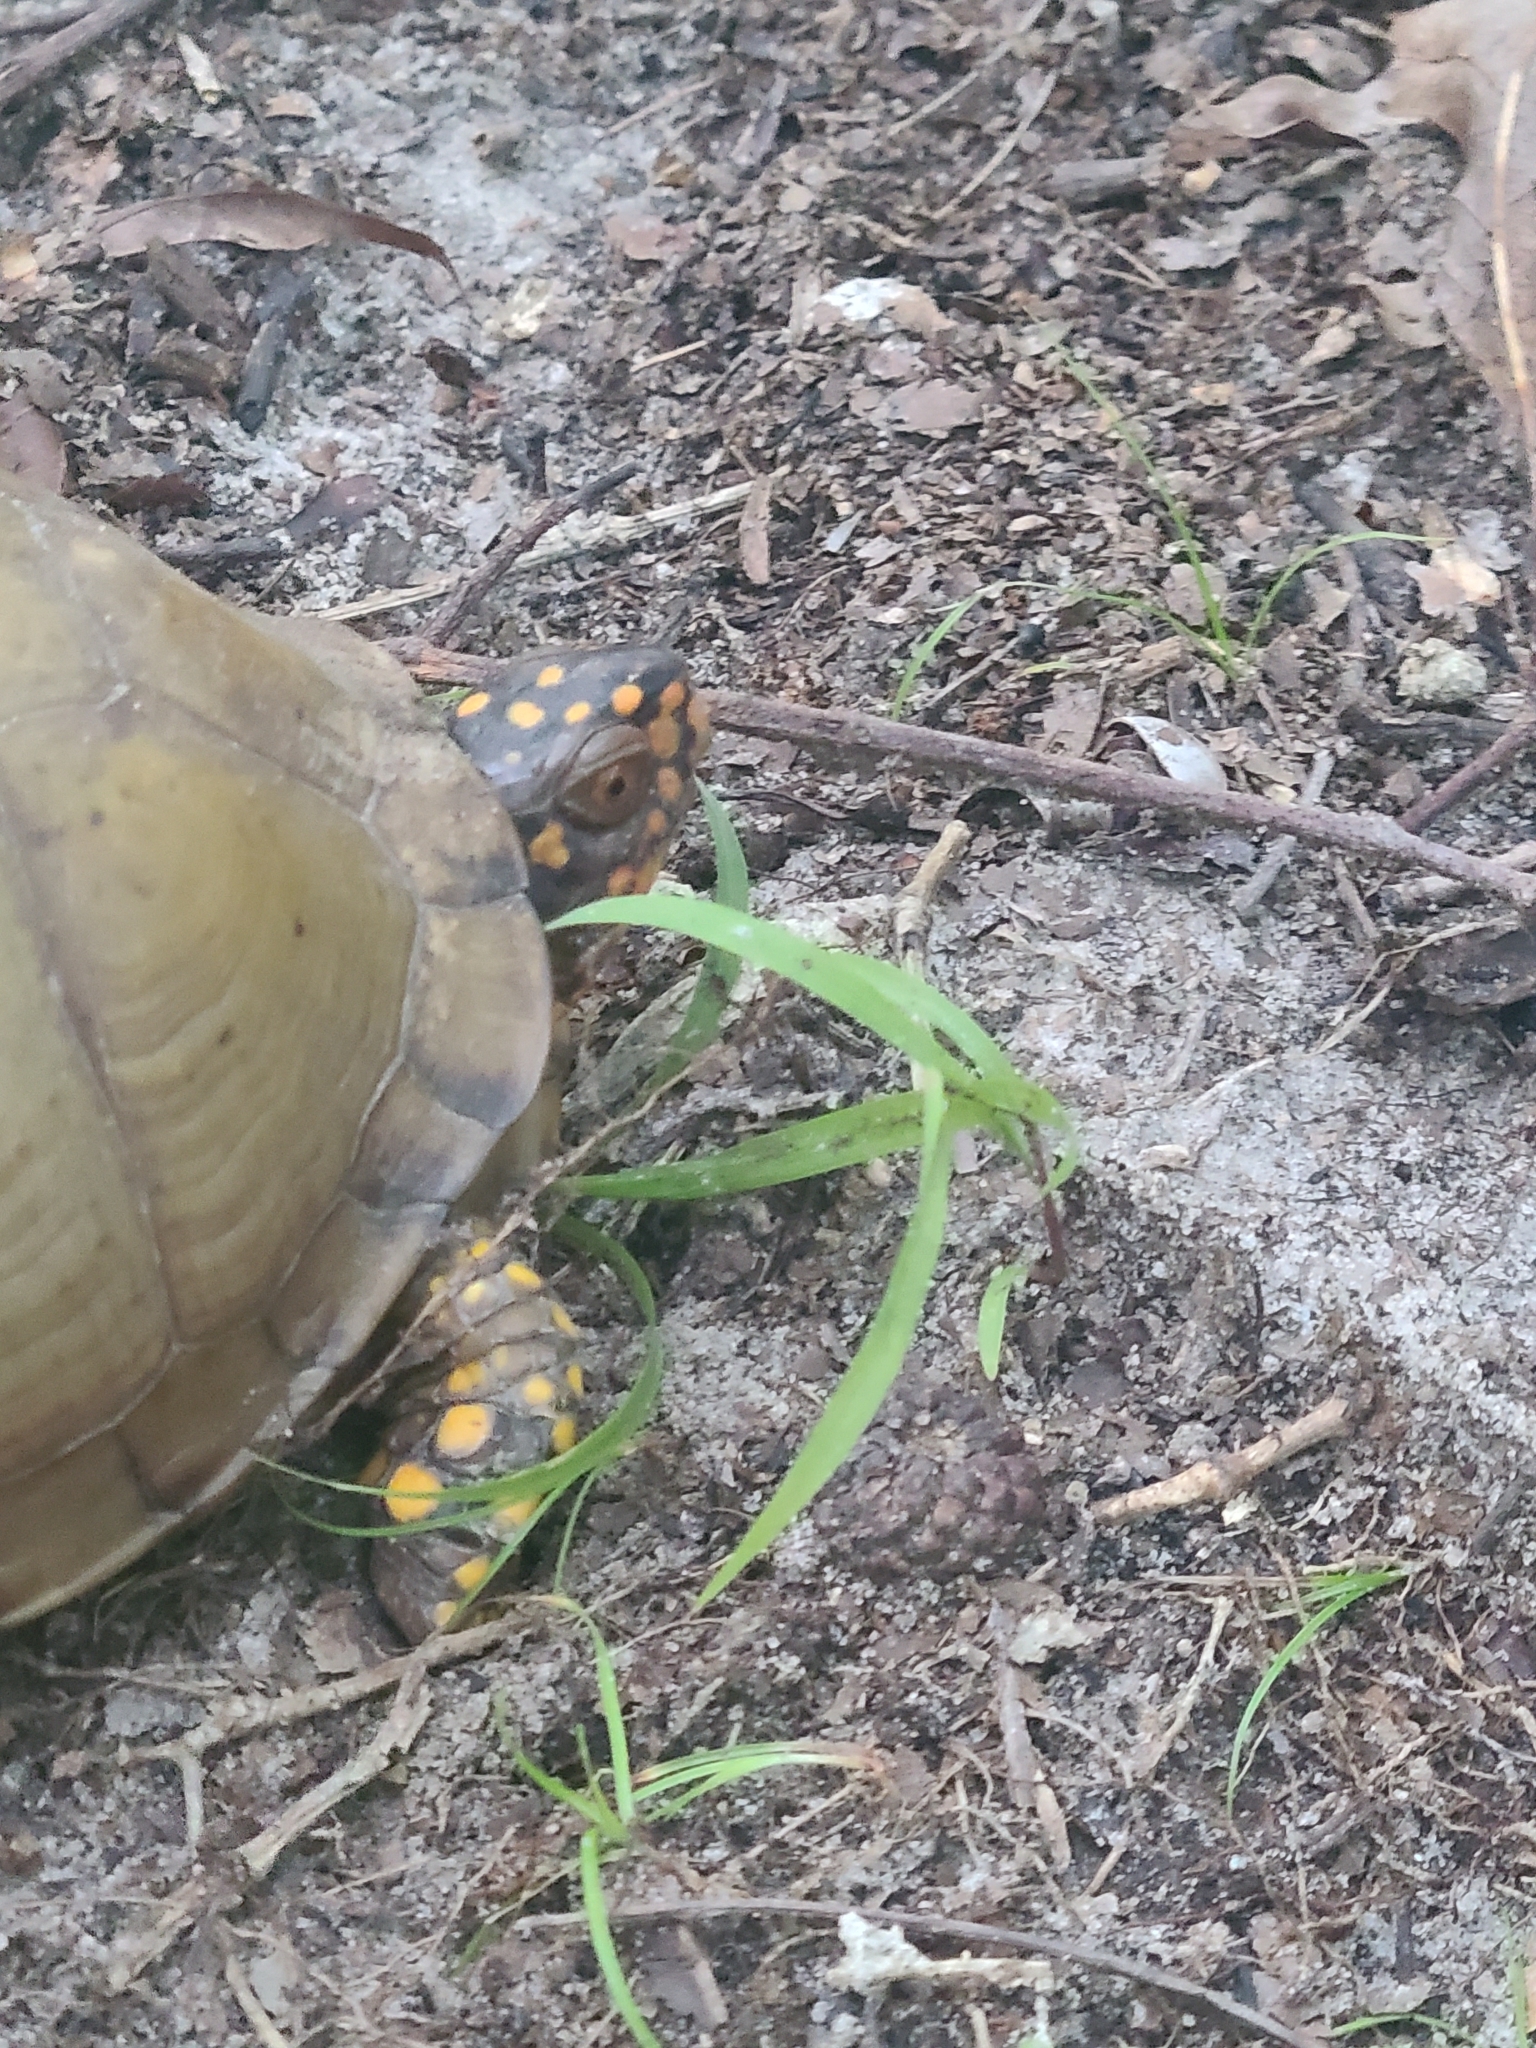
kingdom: Animalia
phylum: Chordata
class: Testudines
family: Emydidae
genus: Terrapene
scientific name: Terrapene carolina
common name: Common box turtle
